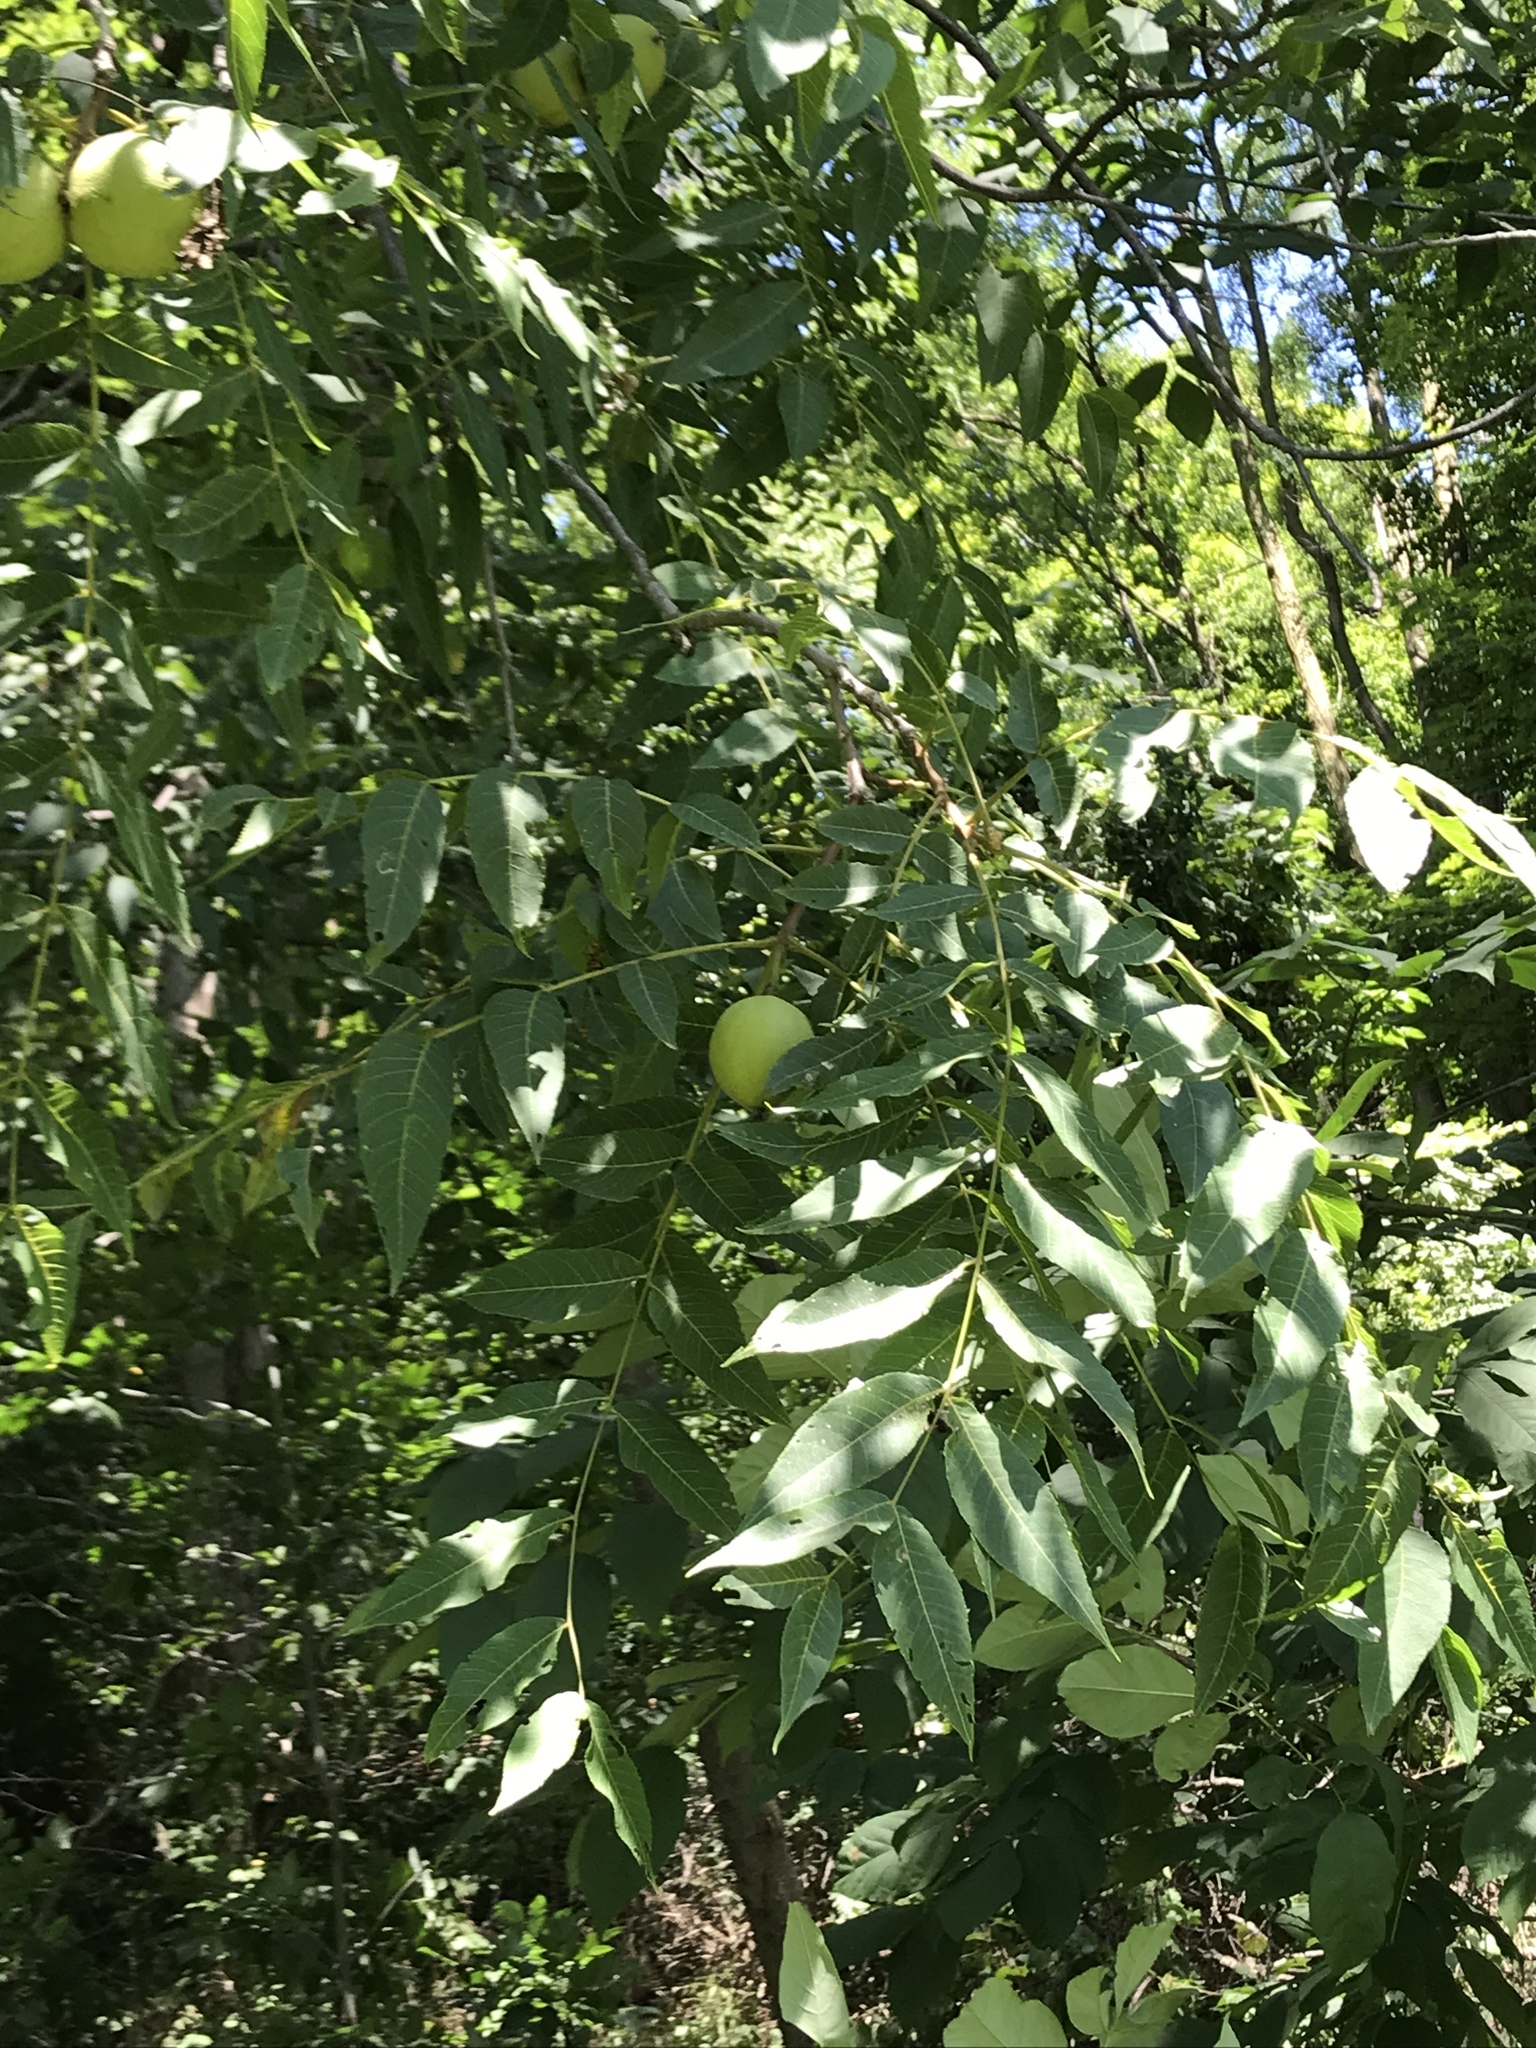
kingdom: Plantae
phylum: Tracheophyta
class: Magnoliopsida
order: Fagales
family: Juglandaceae
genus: Juglans
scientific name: Juglans nigra
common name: Black walnut
